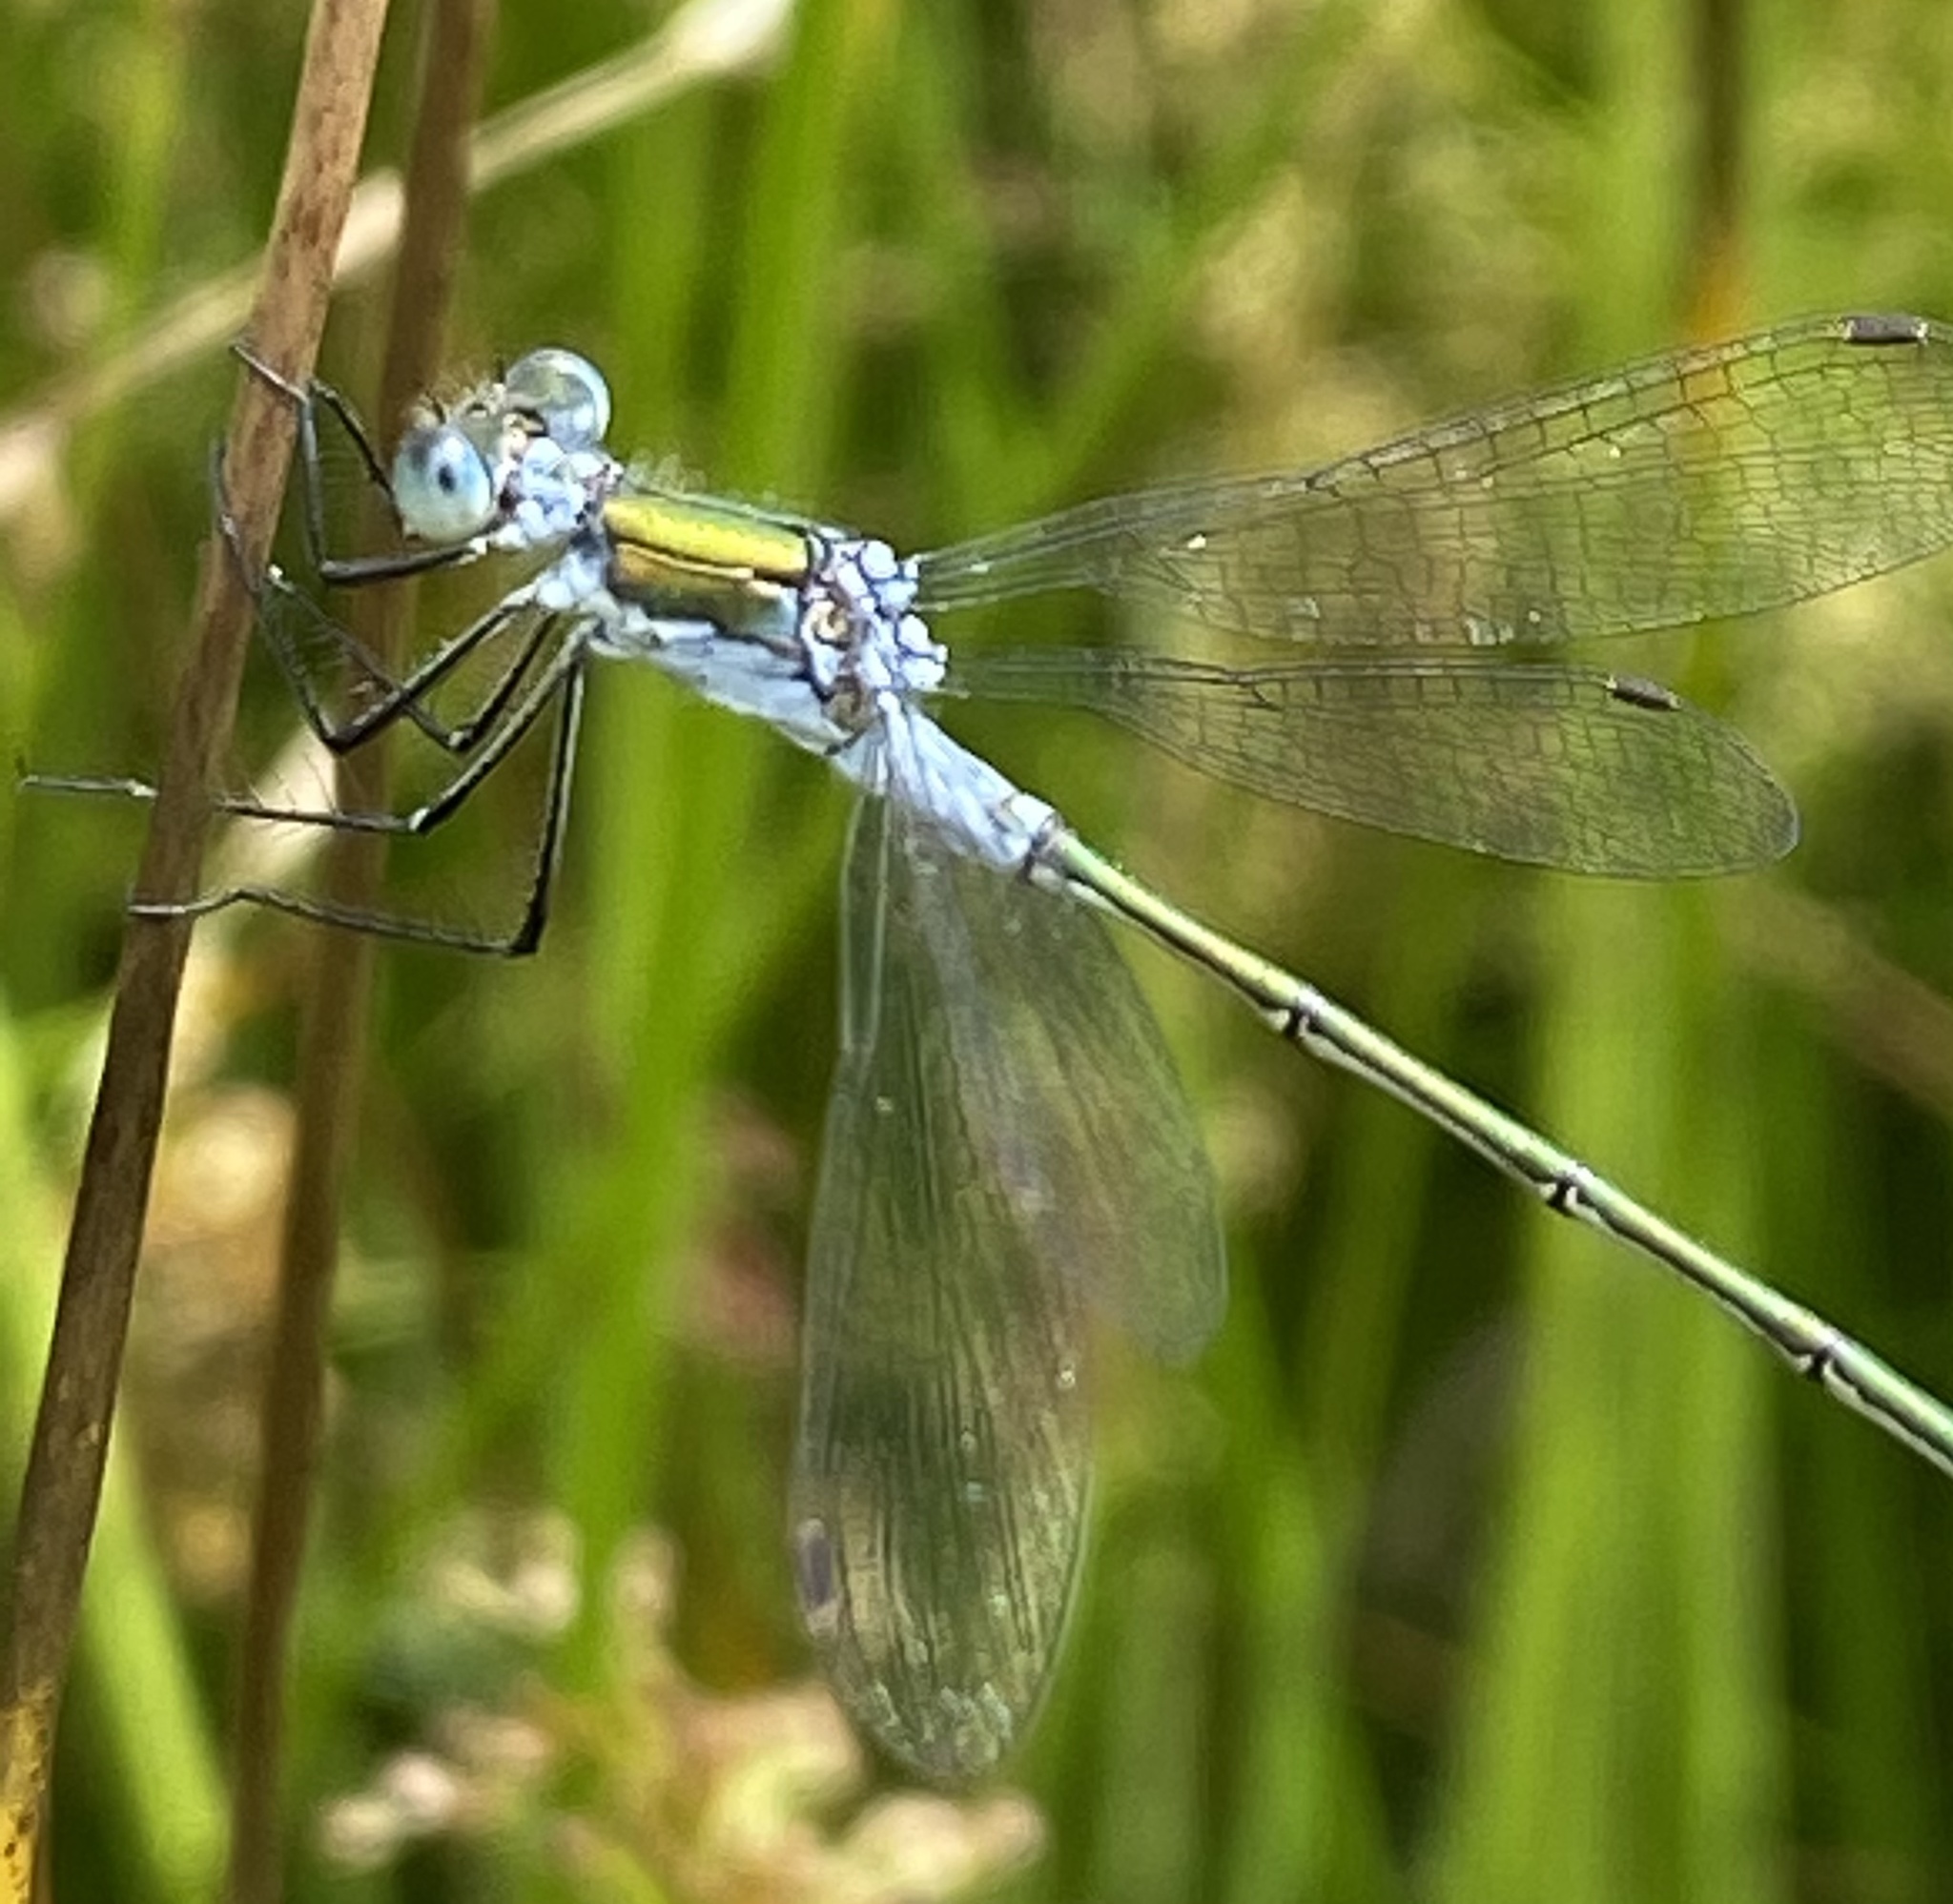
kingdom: Animalia
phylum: Arthropoda
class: Insecta
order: Odonata
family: Lestidae
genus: Lestes
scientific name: Lestes sponsa
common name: Common spreadwing
